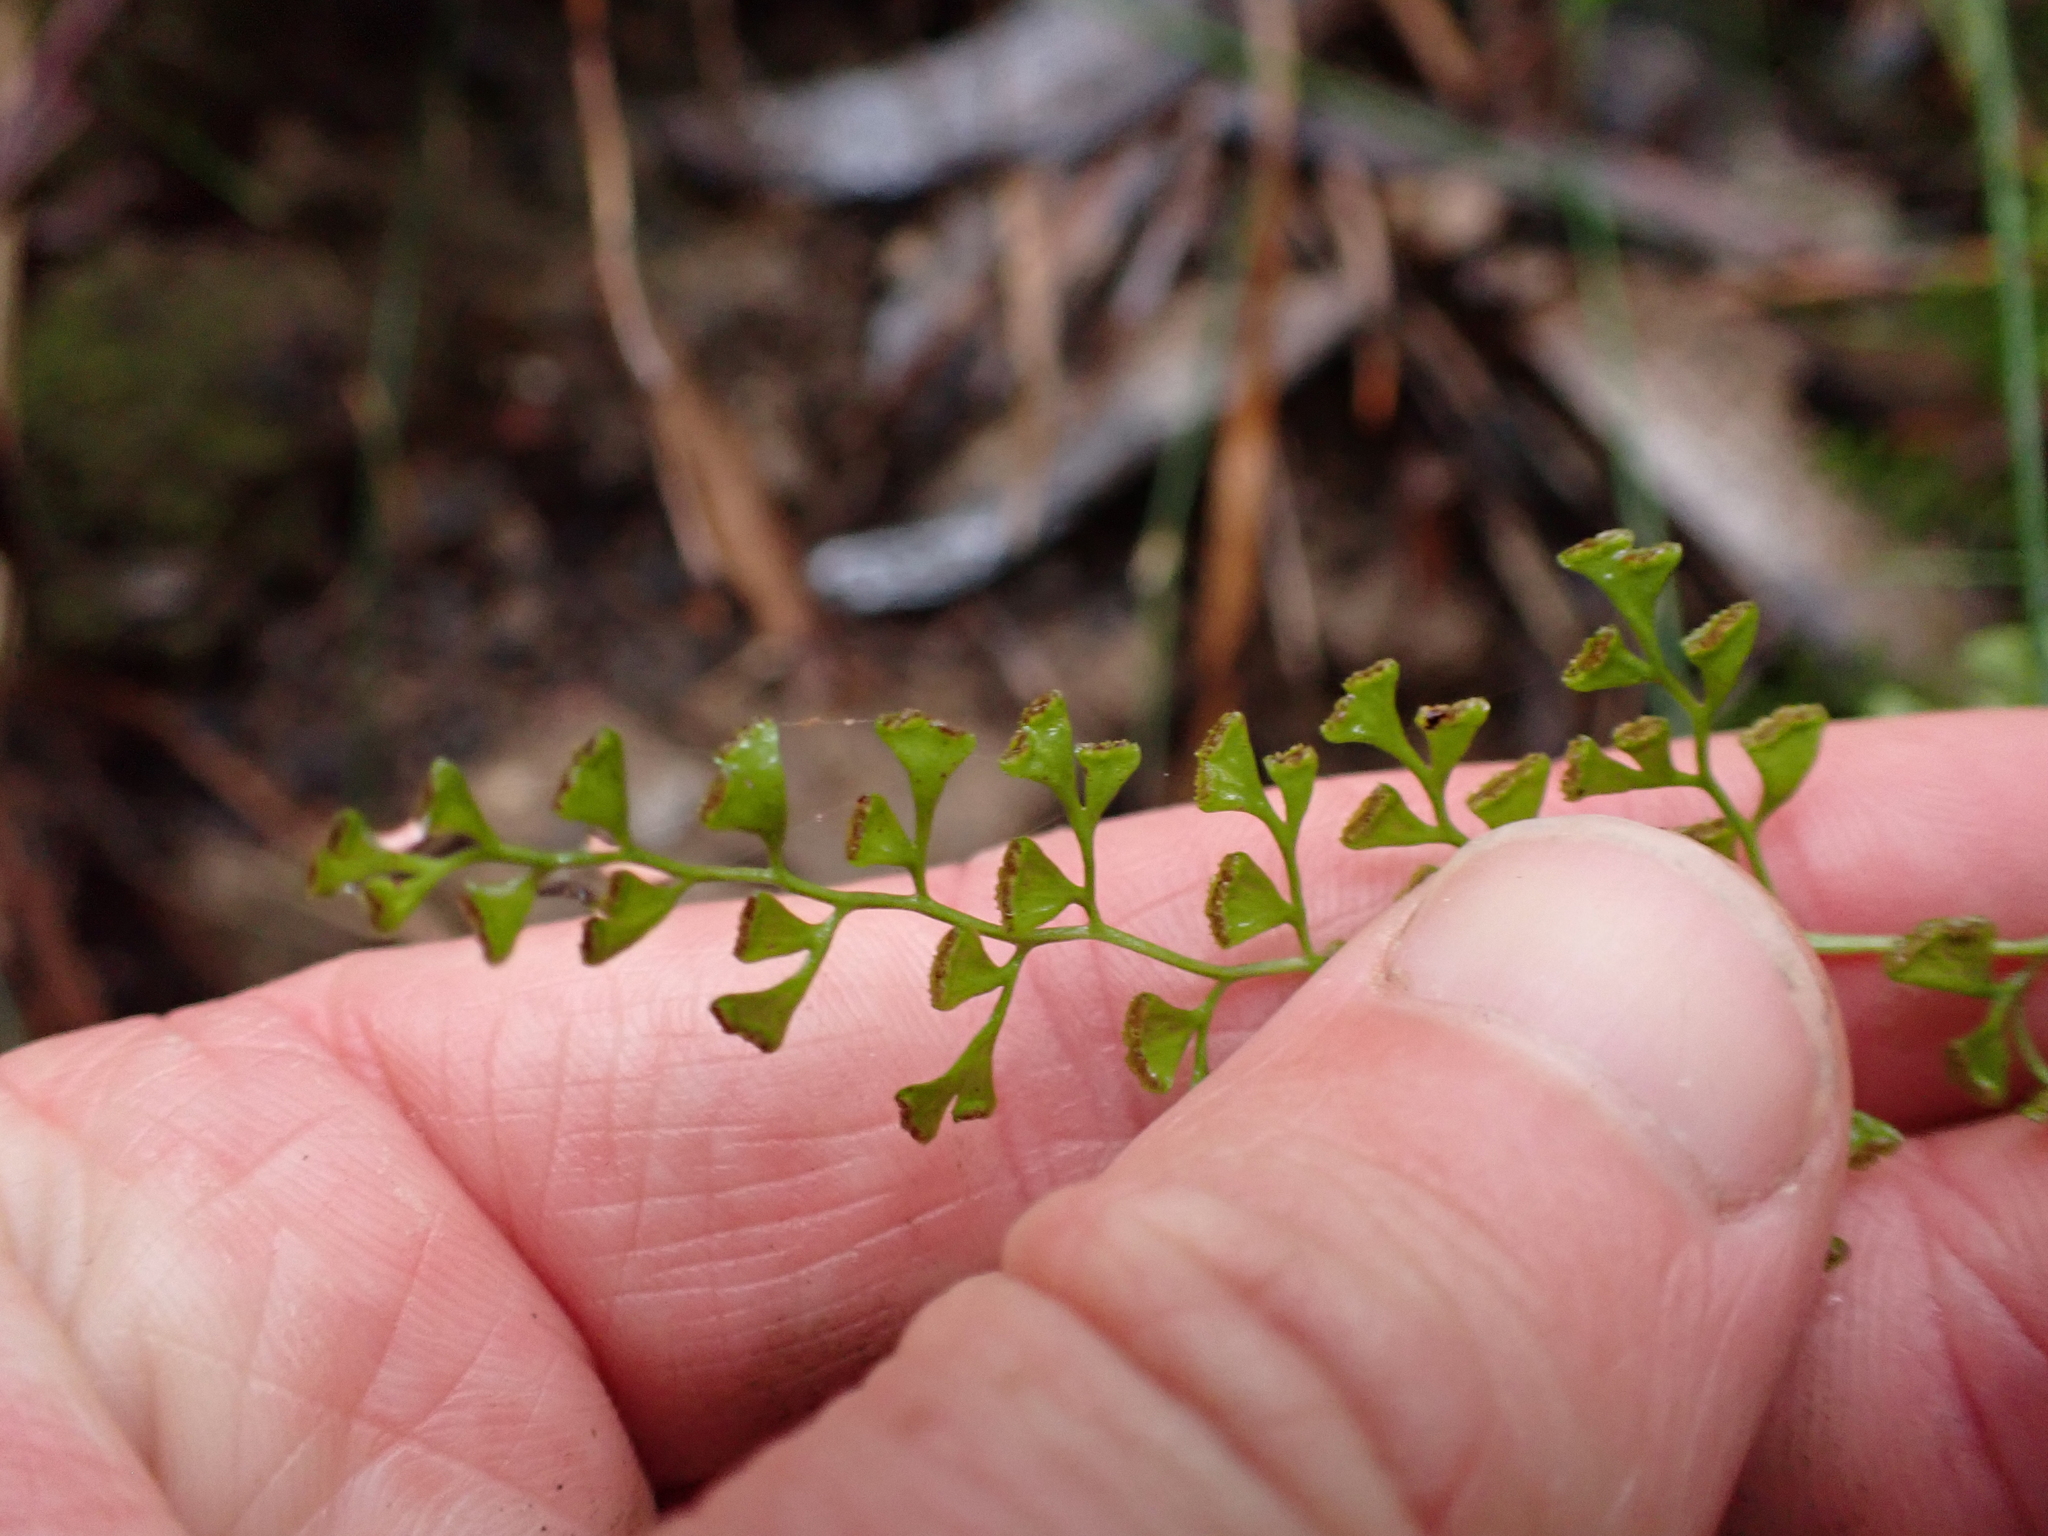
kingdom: Plantae
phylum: Tracheophyta
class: Polypodiopsida
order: Polypodiales
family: Lindsaeaceae
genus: Lindsaea
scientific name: Lindsaea microphylla
